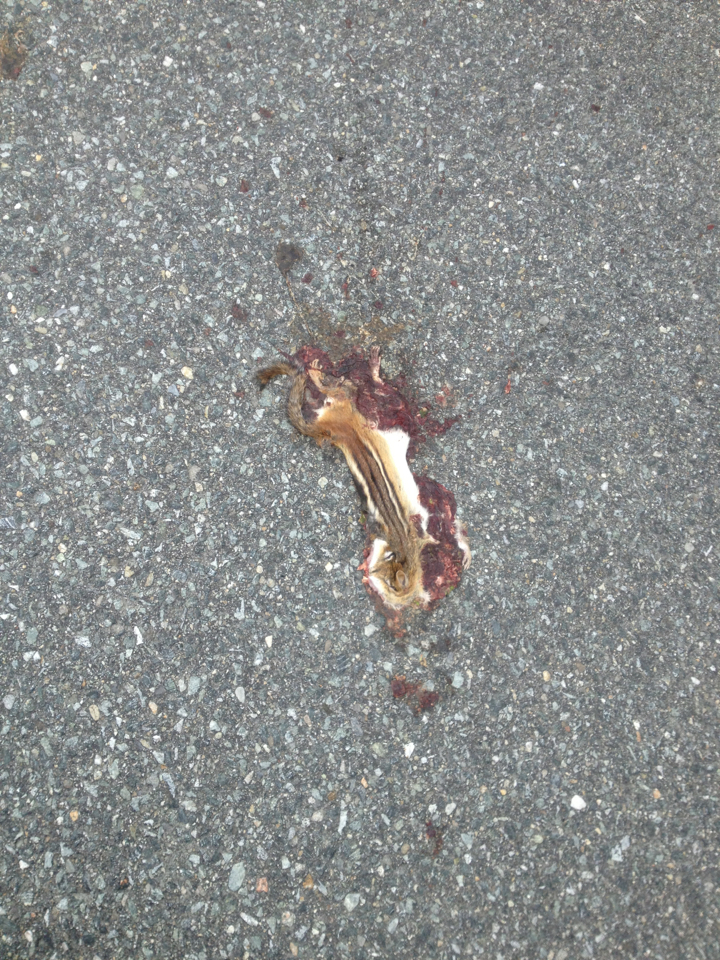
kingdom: Animalia
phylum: Chordata
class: Mammalia
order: Rodentia
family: Sciuridae
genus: Tamias
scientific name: Tamias striatus
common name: Eastern chipmunk
